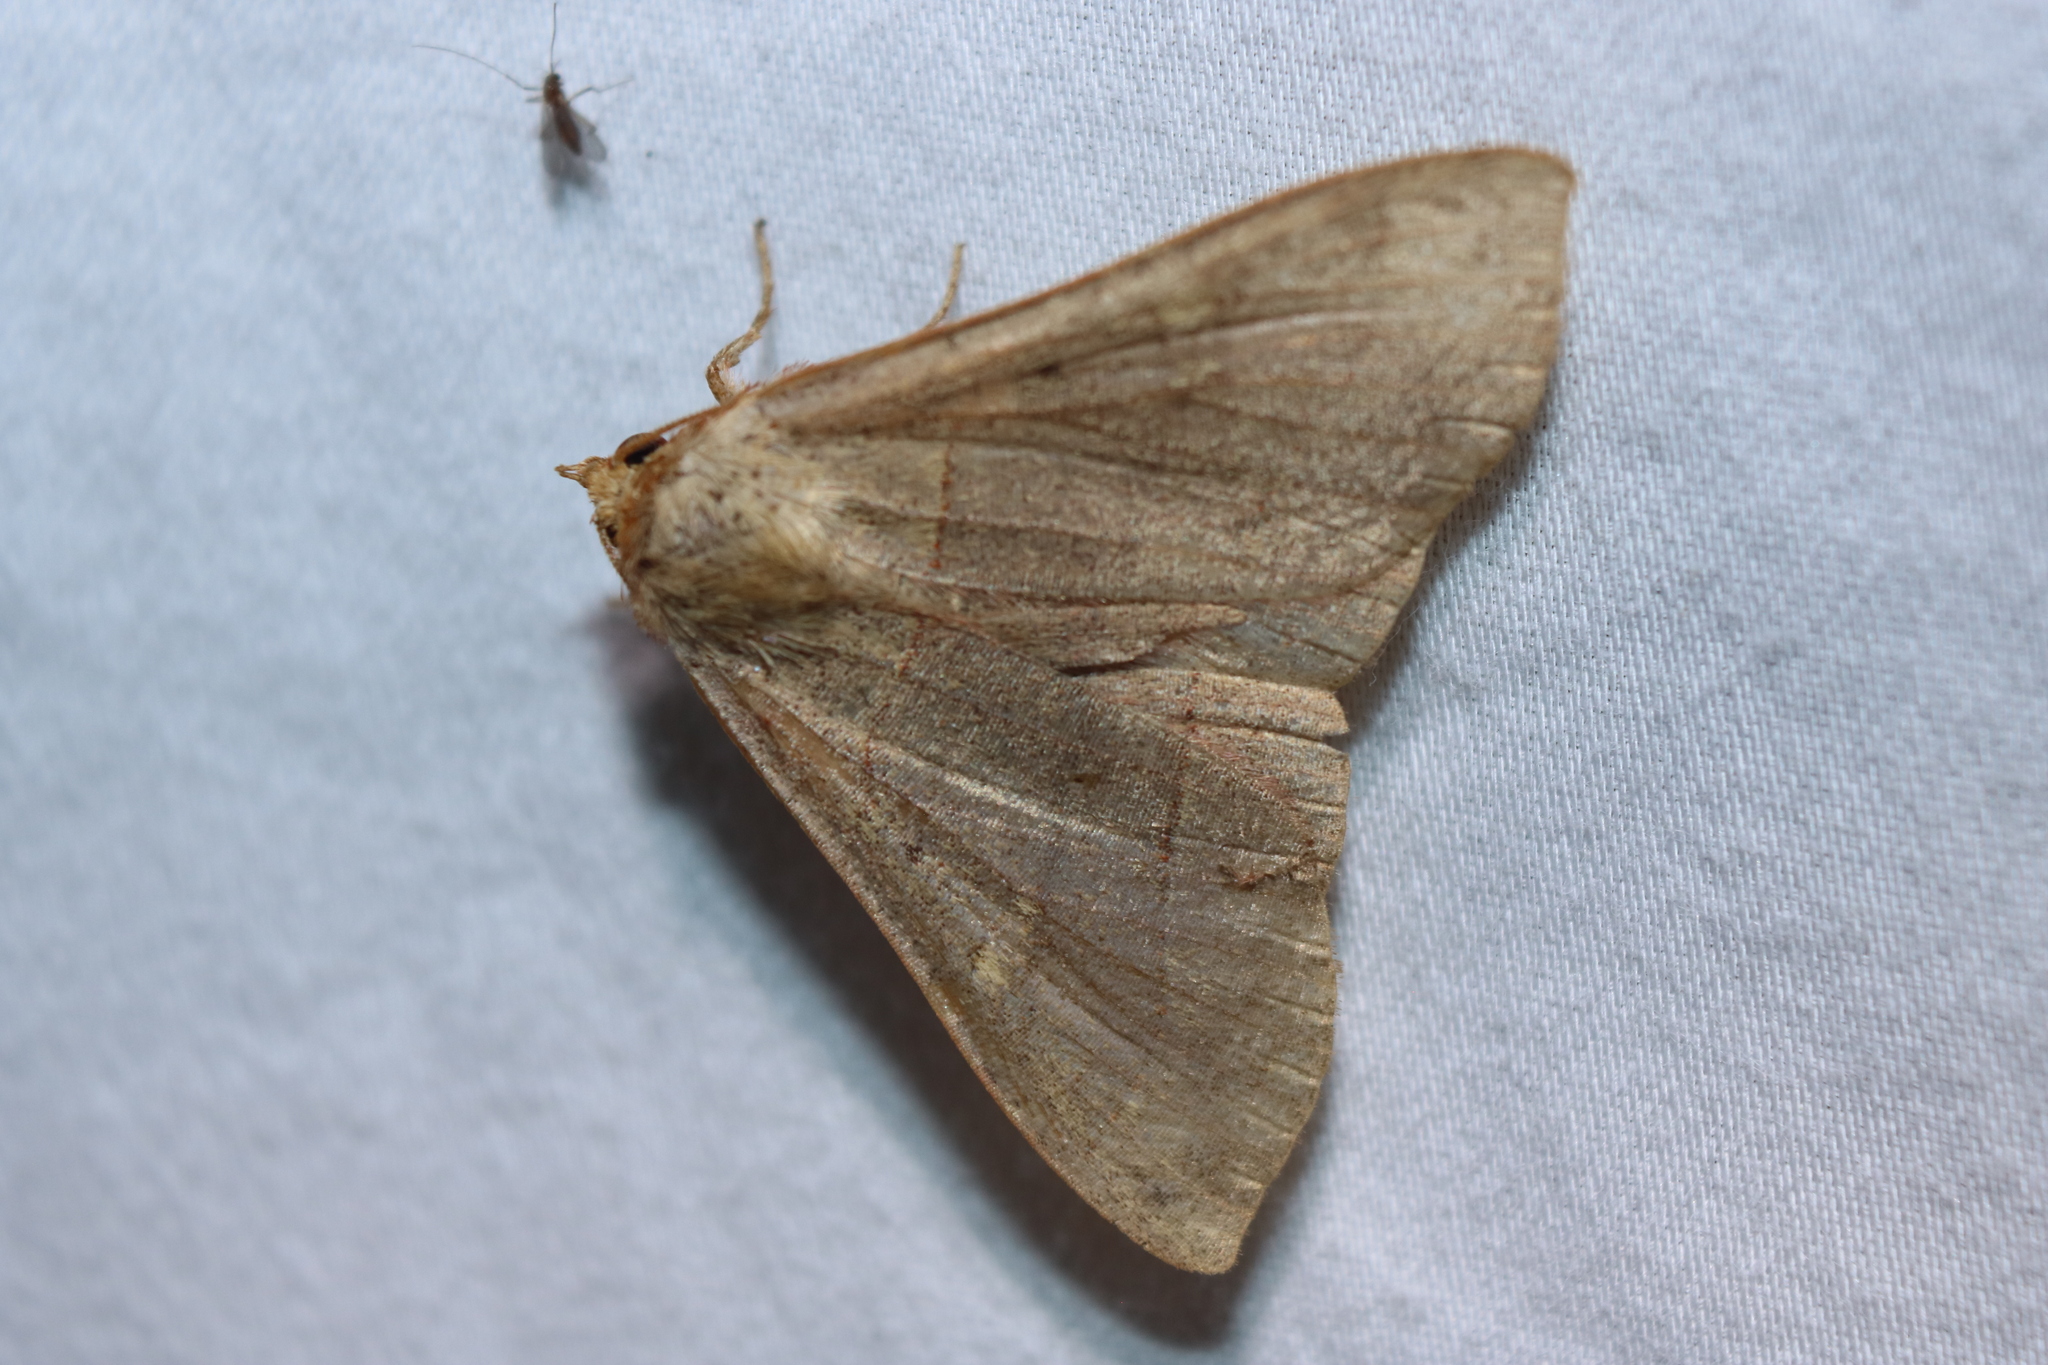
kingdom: Animalia
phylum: Arthropoda
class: Insecta
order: Lepidoptera
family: Erebidae
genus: Panopoda
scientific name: Panopoda rufimargo
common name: Red-lined panopoda moth
